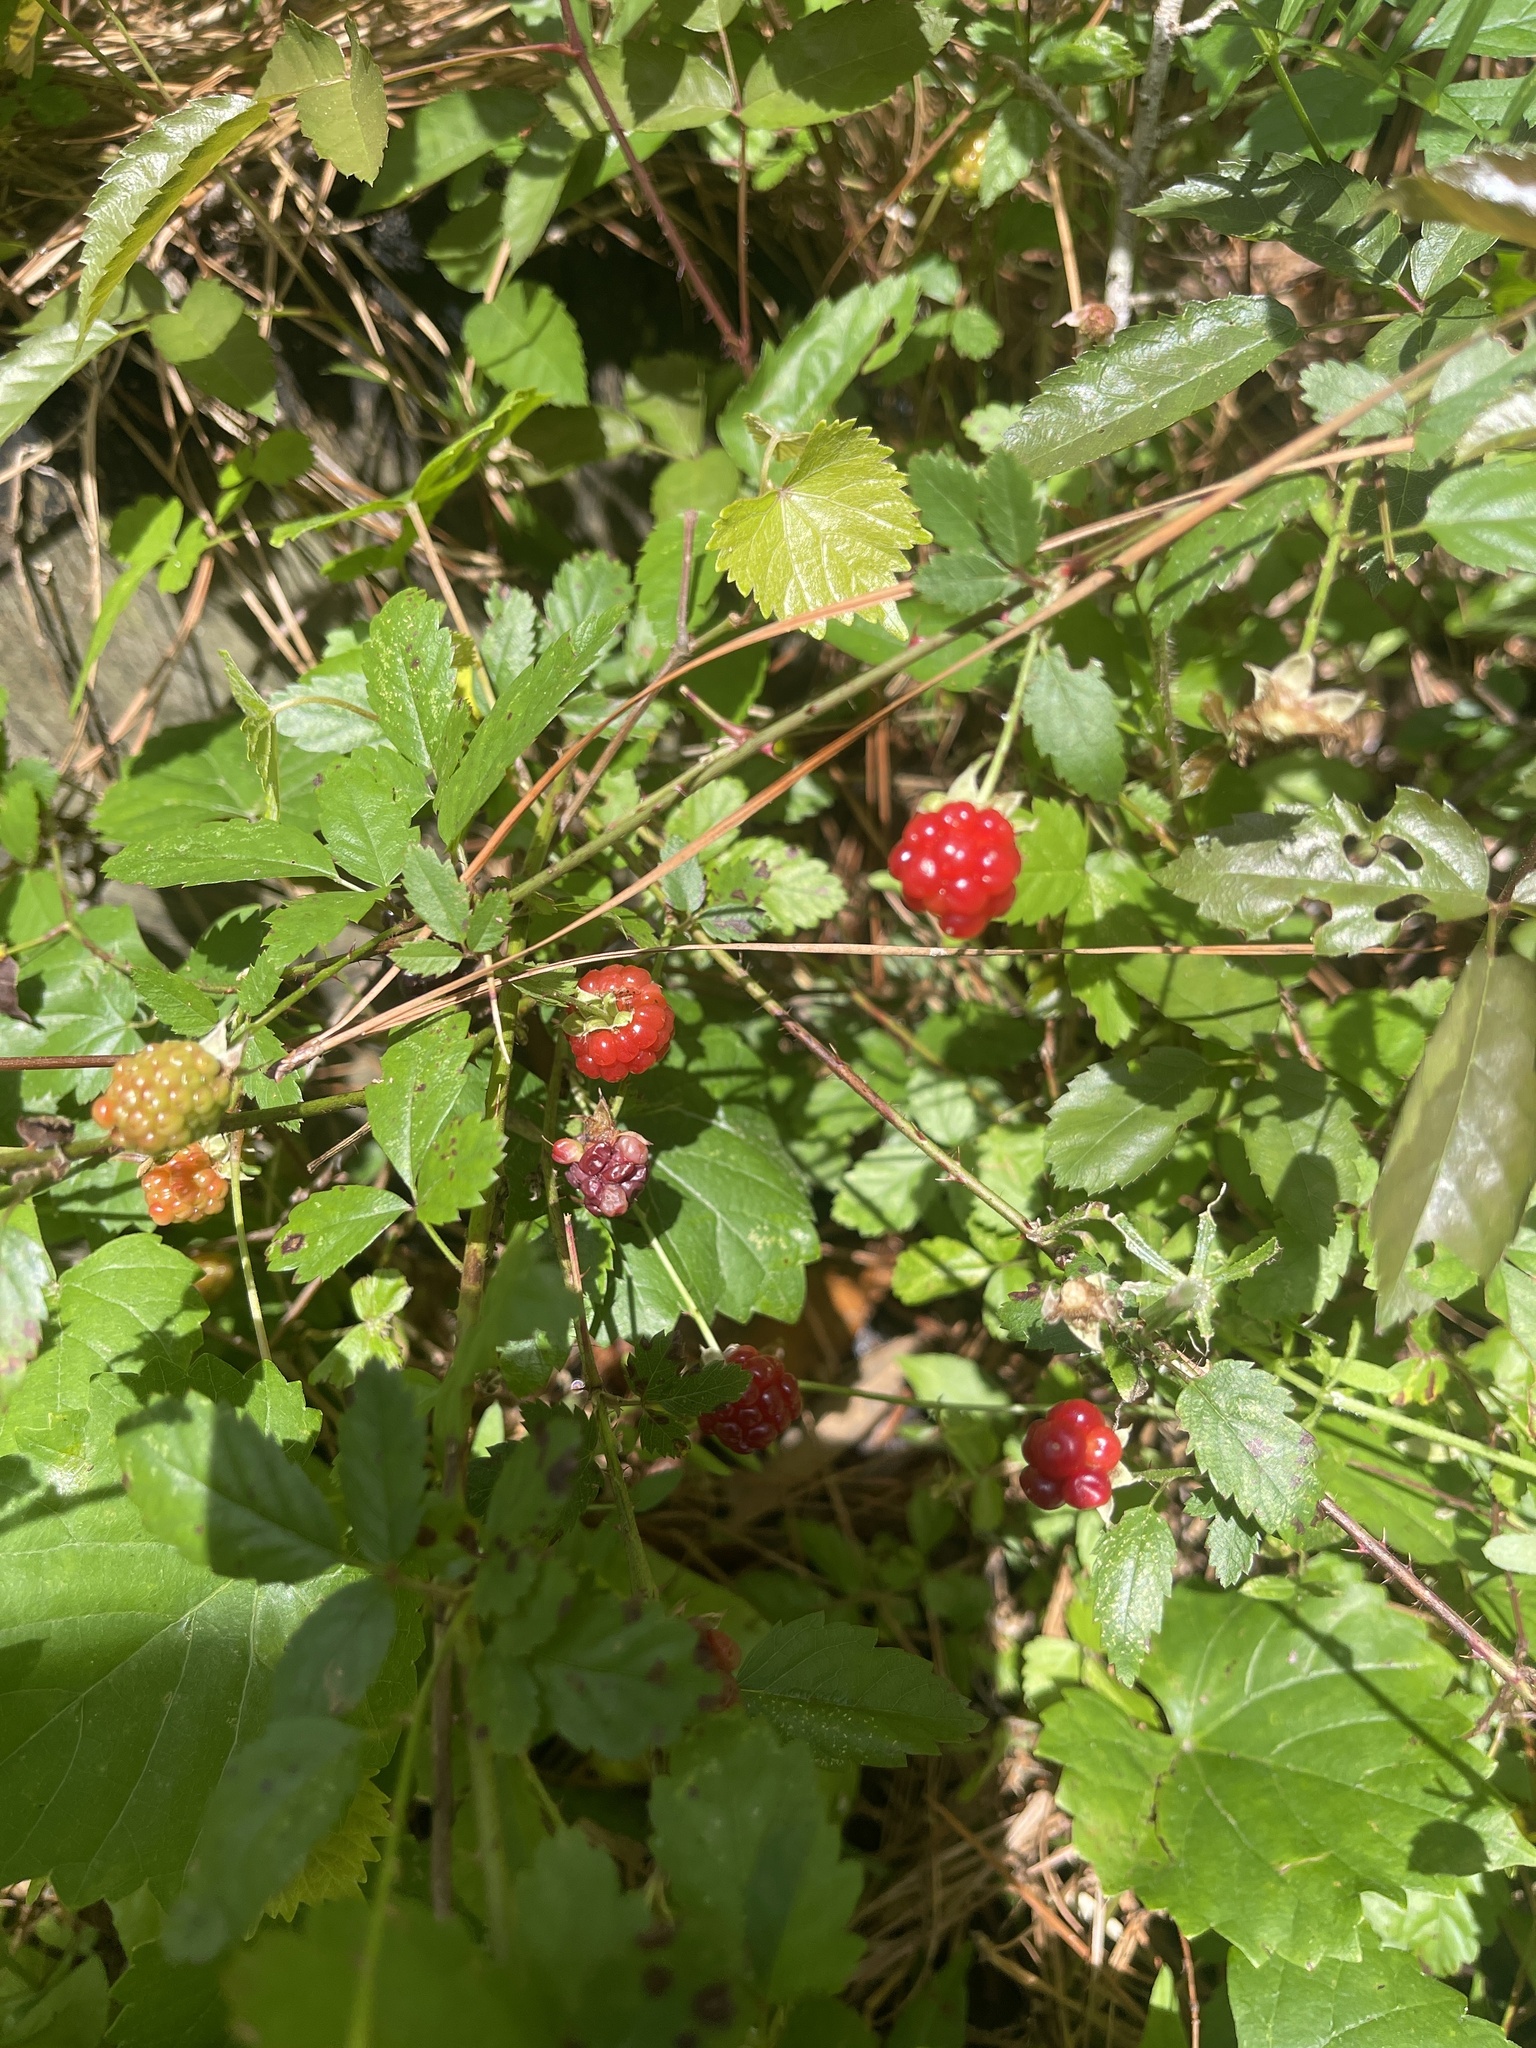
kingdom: Plantae
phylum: Tracheophyta
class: Magnoliopsida
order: Rosales
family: Rosaceae
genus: Rubus
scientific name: Rubus trivialis
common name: Southern dewberry
